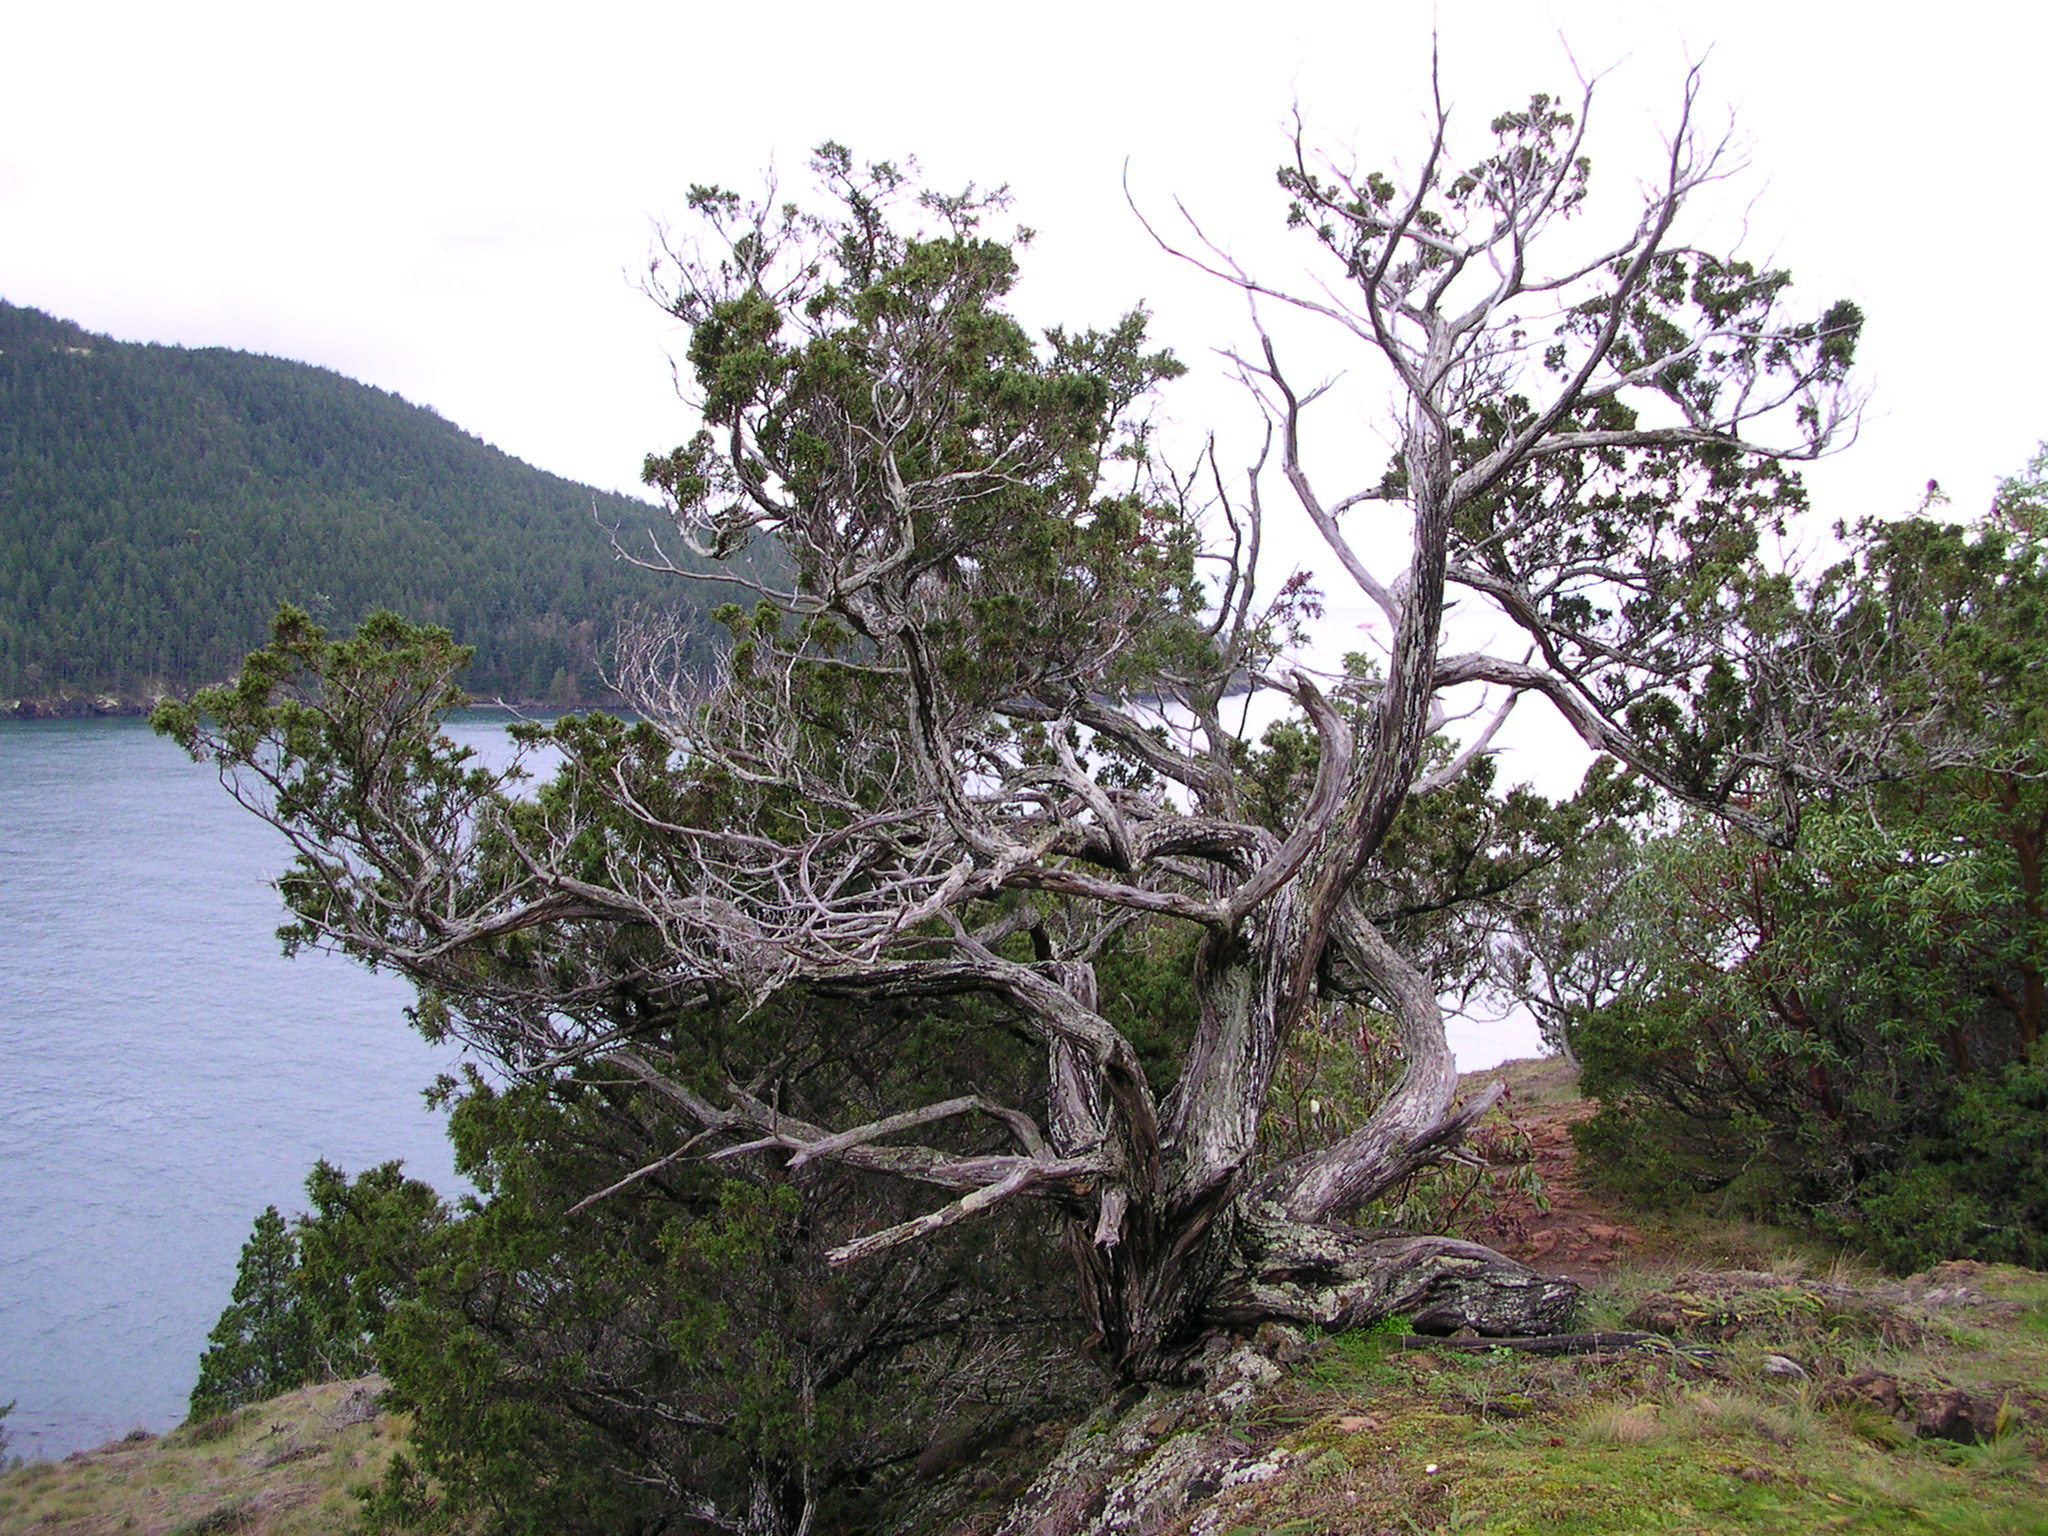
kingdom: Plantae
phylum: Tracheophyta
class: Pinopsida
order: Pinales
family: Cupressaceae
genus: Juniperus
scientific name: Juniperus scopulorum
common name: Rocky mountain juniper
